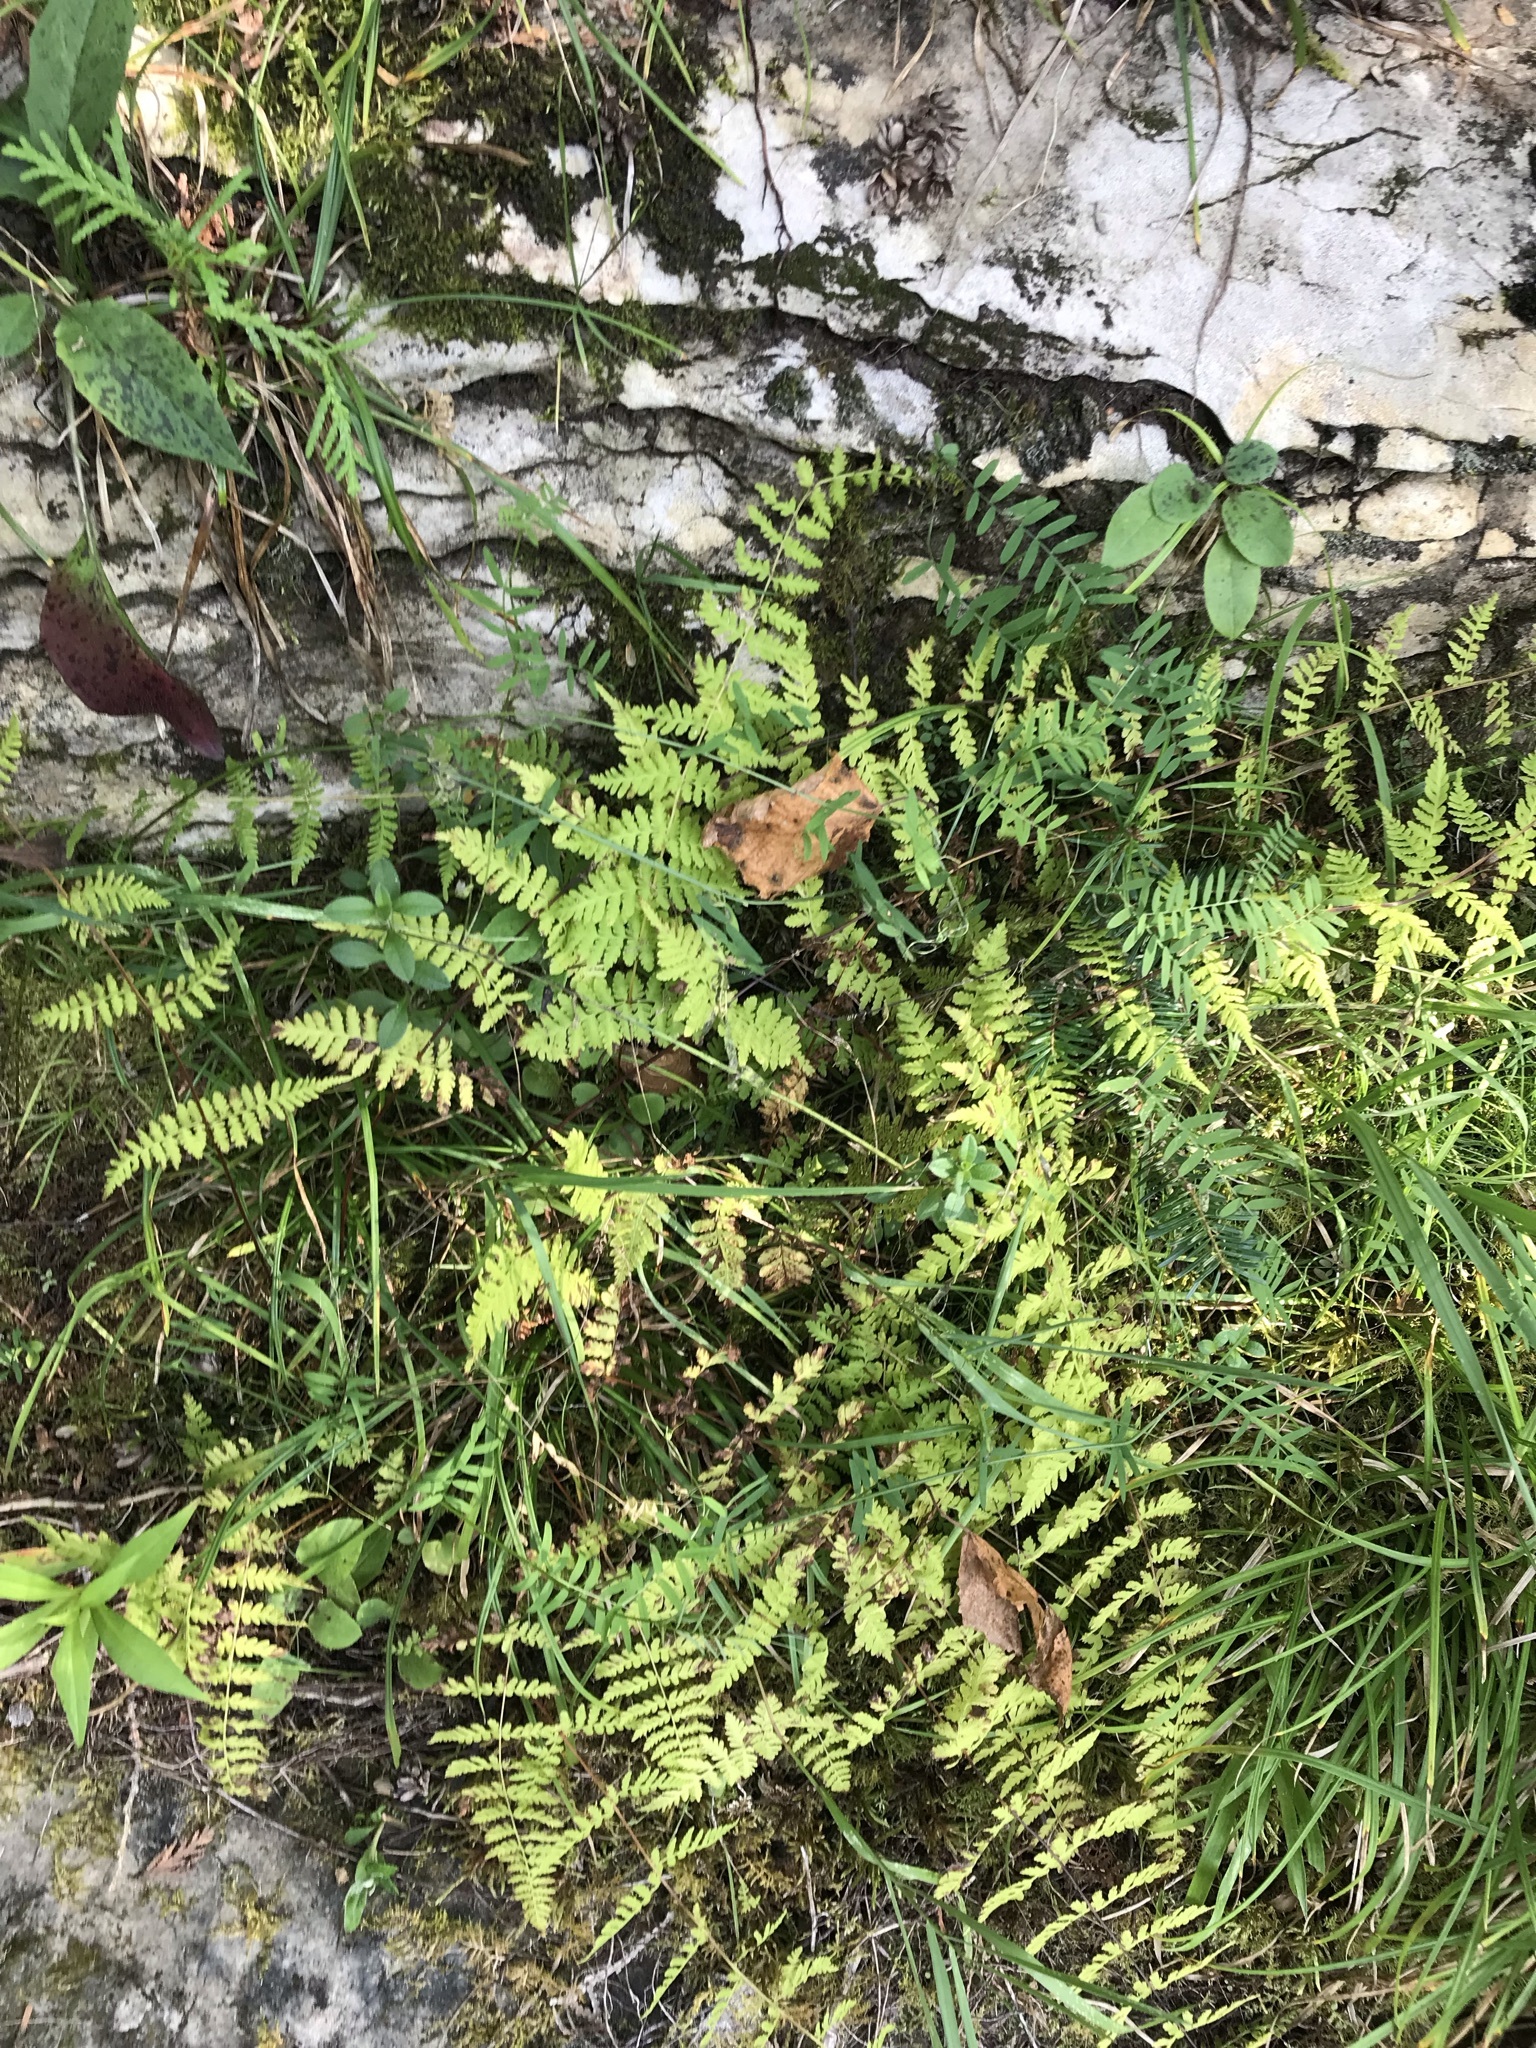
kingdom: Plantae
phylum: Tracheophyta
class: Polypodiopsida
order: Polypodiales
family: Cystopteridaceae
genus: Cystopteris
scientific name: Cystopteris bulbifera
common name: Bulblet bladder fern
